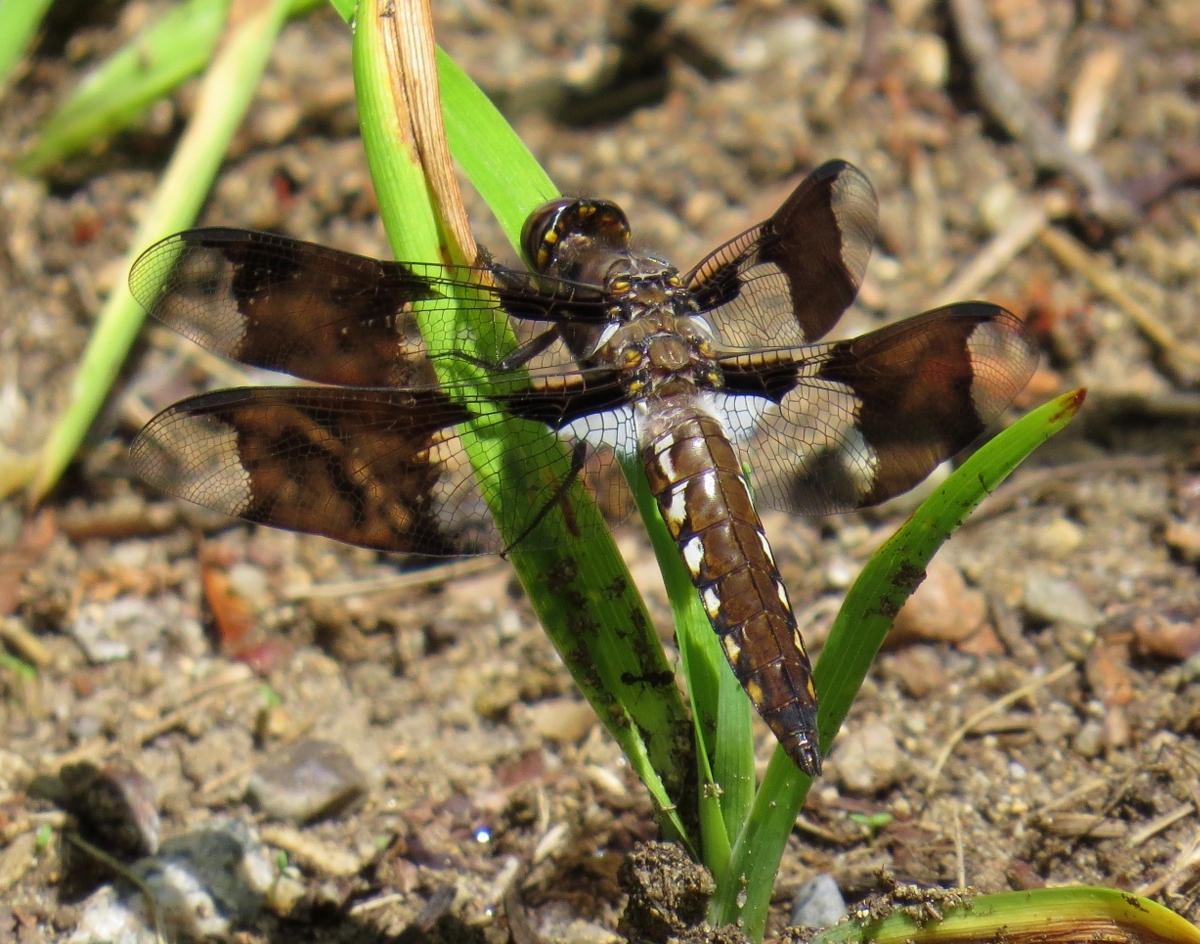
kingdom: Animalia
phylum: Arthropoda
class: Insecta
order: Odonata
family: Libellulidae
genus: Plathemis
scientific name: Plathemis lydia
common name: Common whitetail
